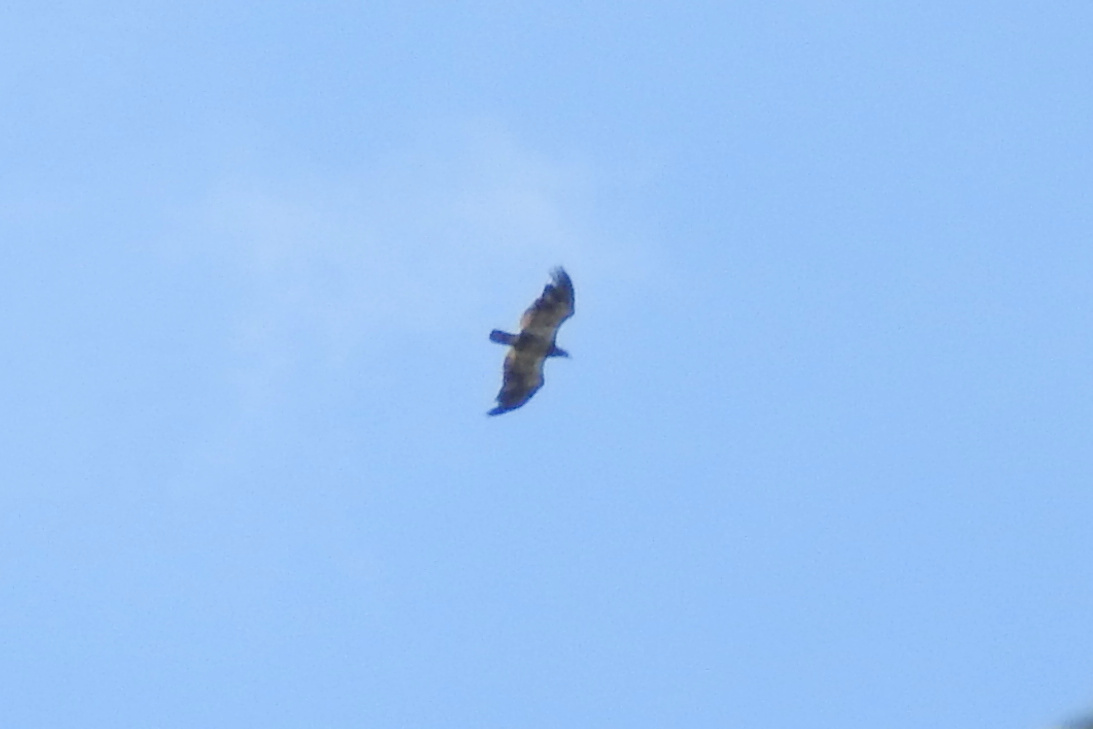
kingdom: Animalia
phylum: Chordata
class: Aves
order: Accipitriformes
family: Accipitridae
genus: Haliaeetus
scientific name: Haliaeetus leucocephalus
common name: Bald eagle
